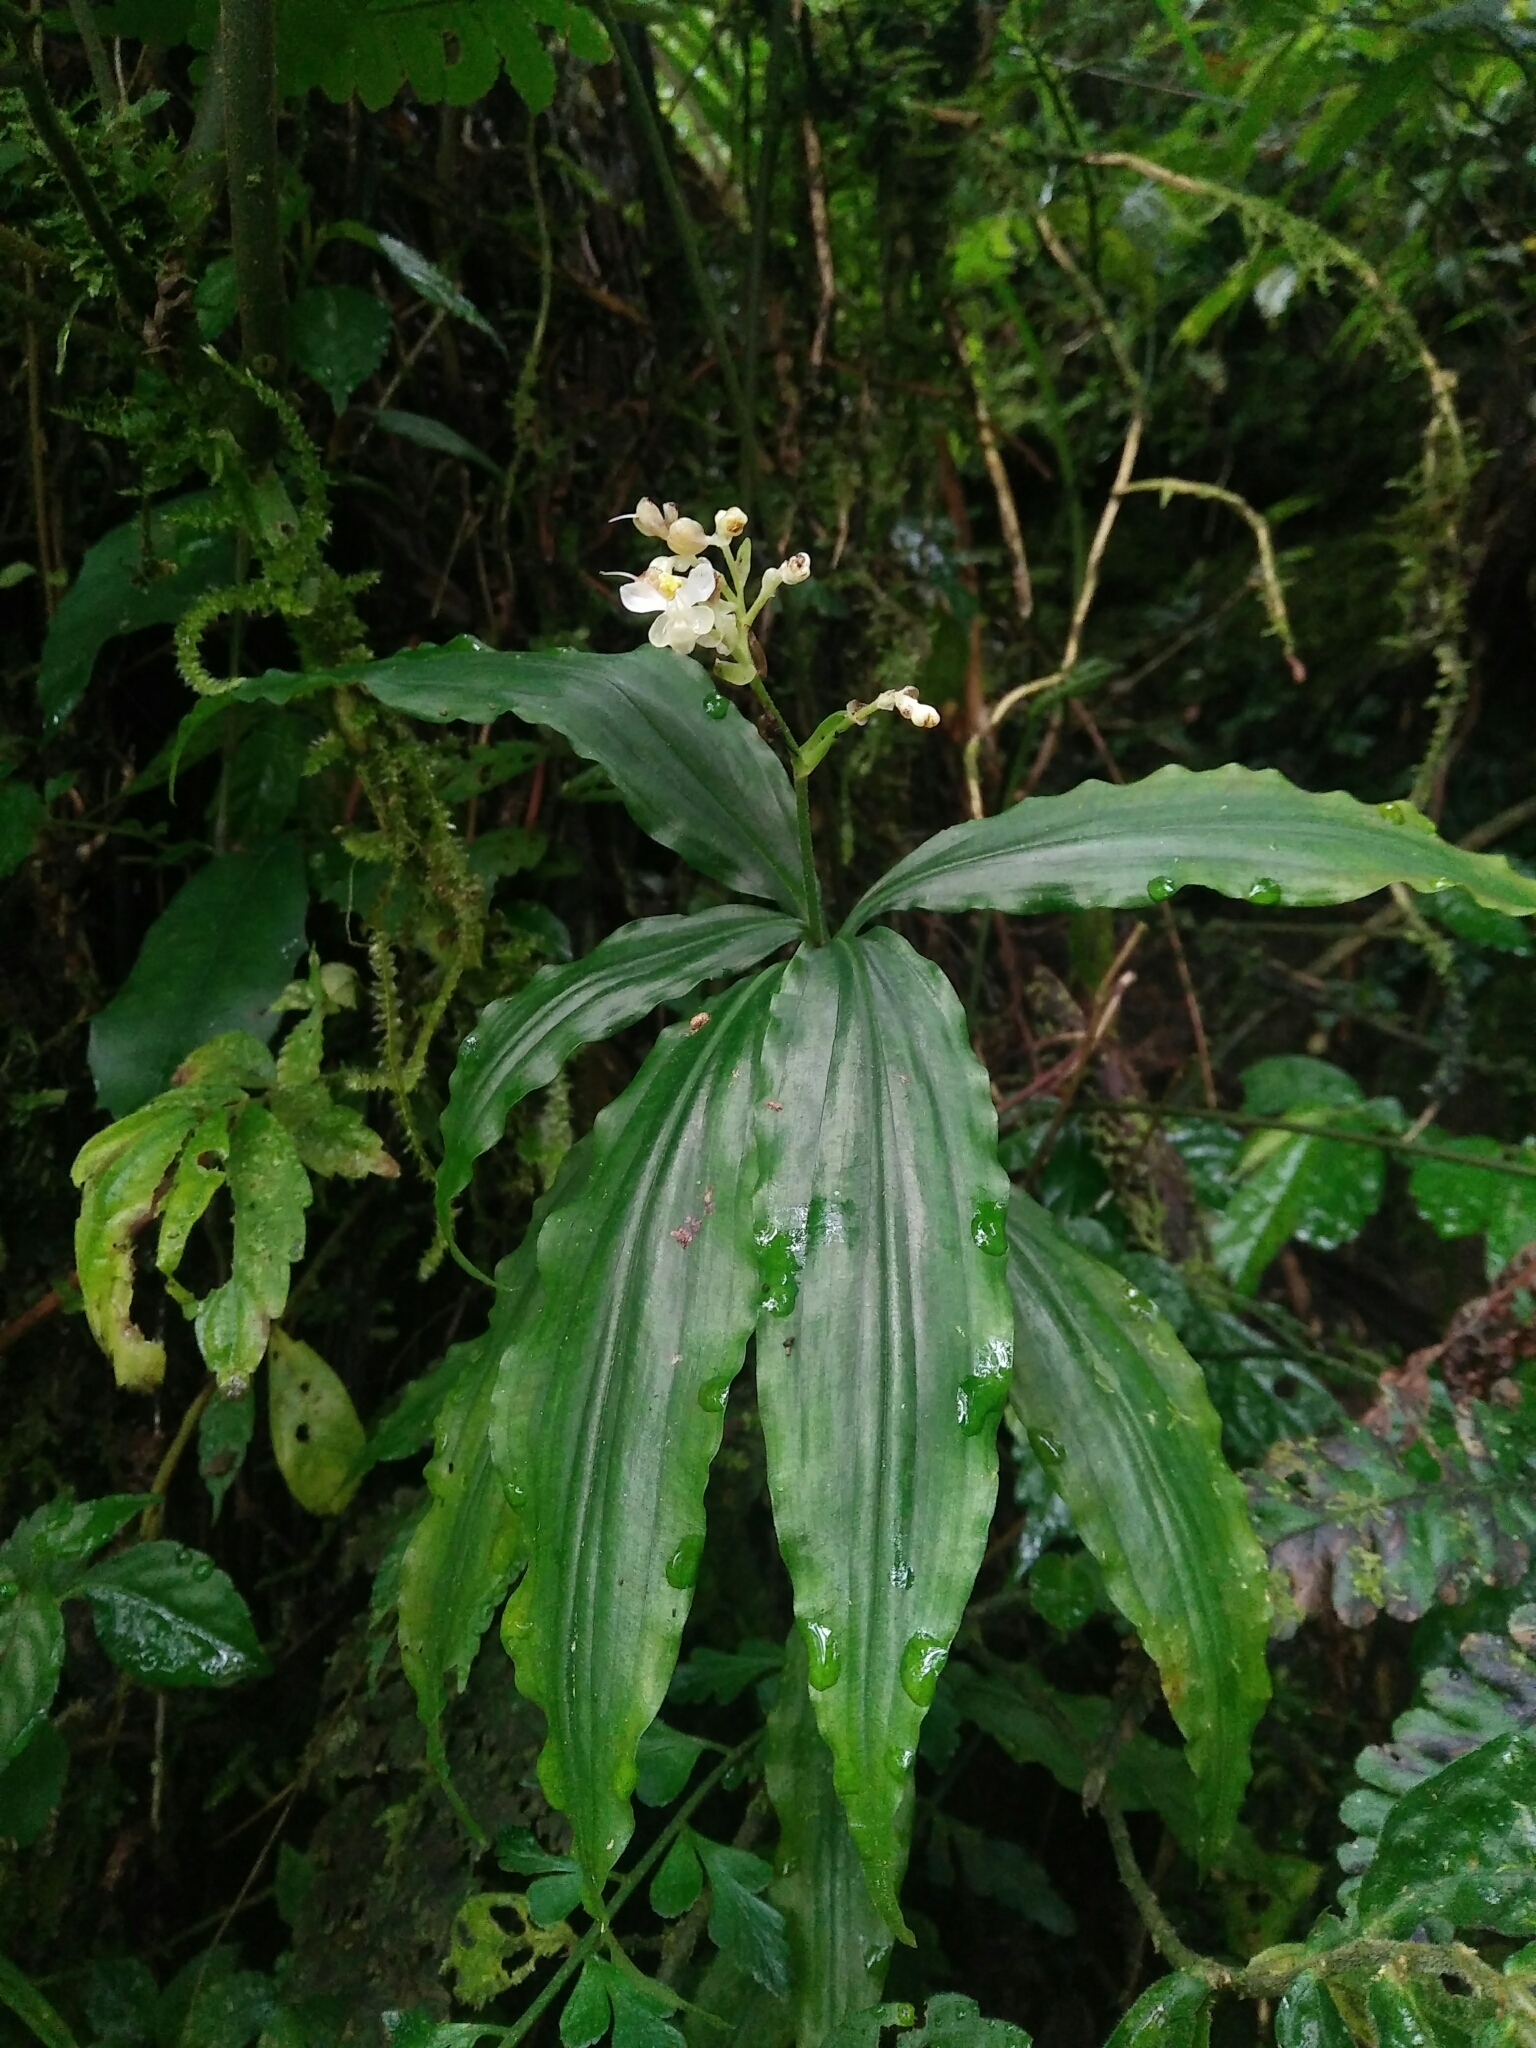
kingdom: Plantae
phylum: Tracheophyta
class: Liliopsida
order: Commelinales
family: Commelinaceae
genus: Pollia
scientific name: Pollia japonica
